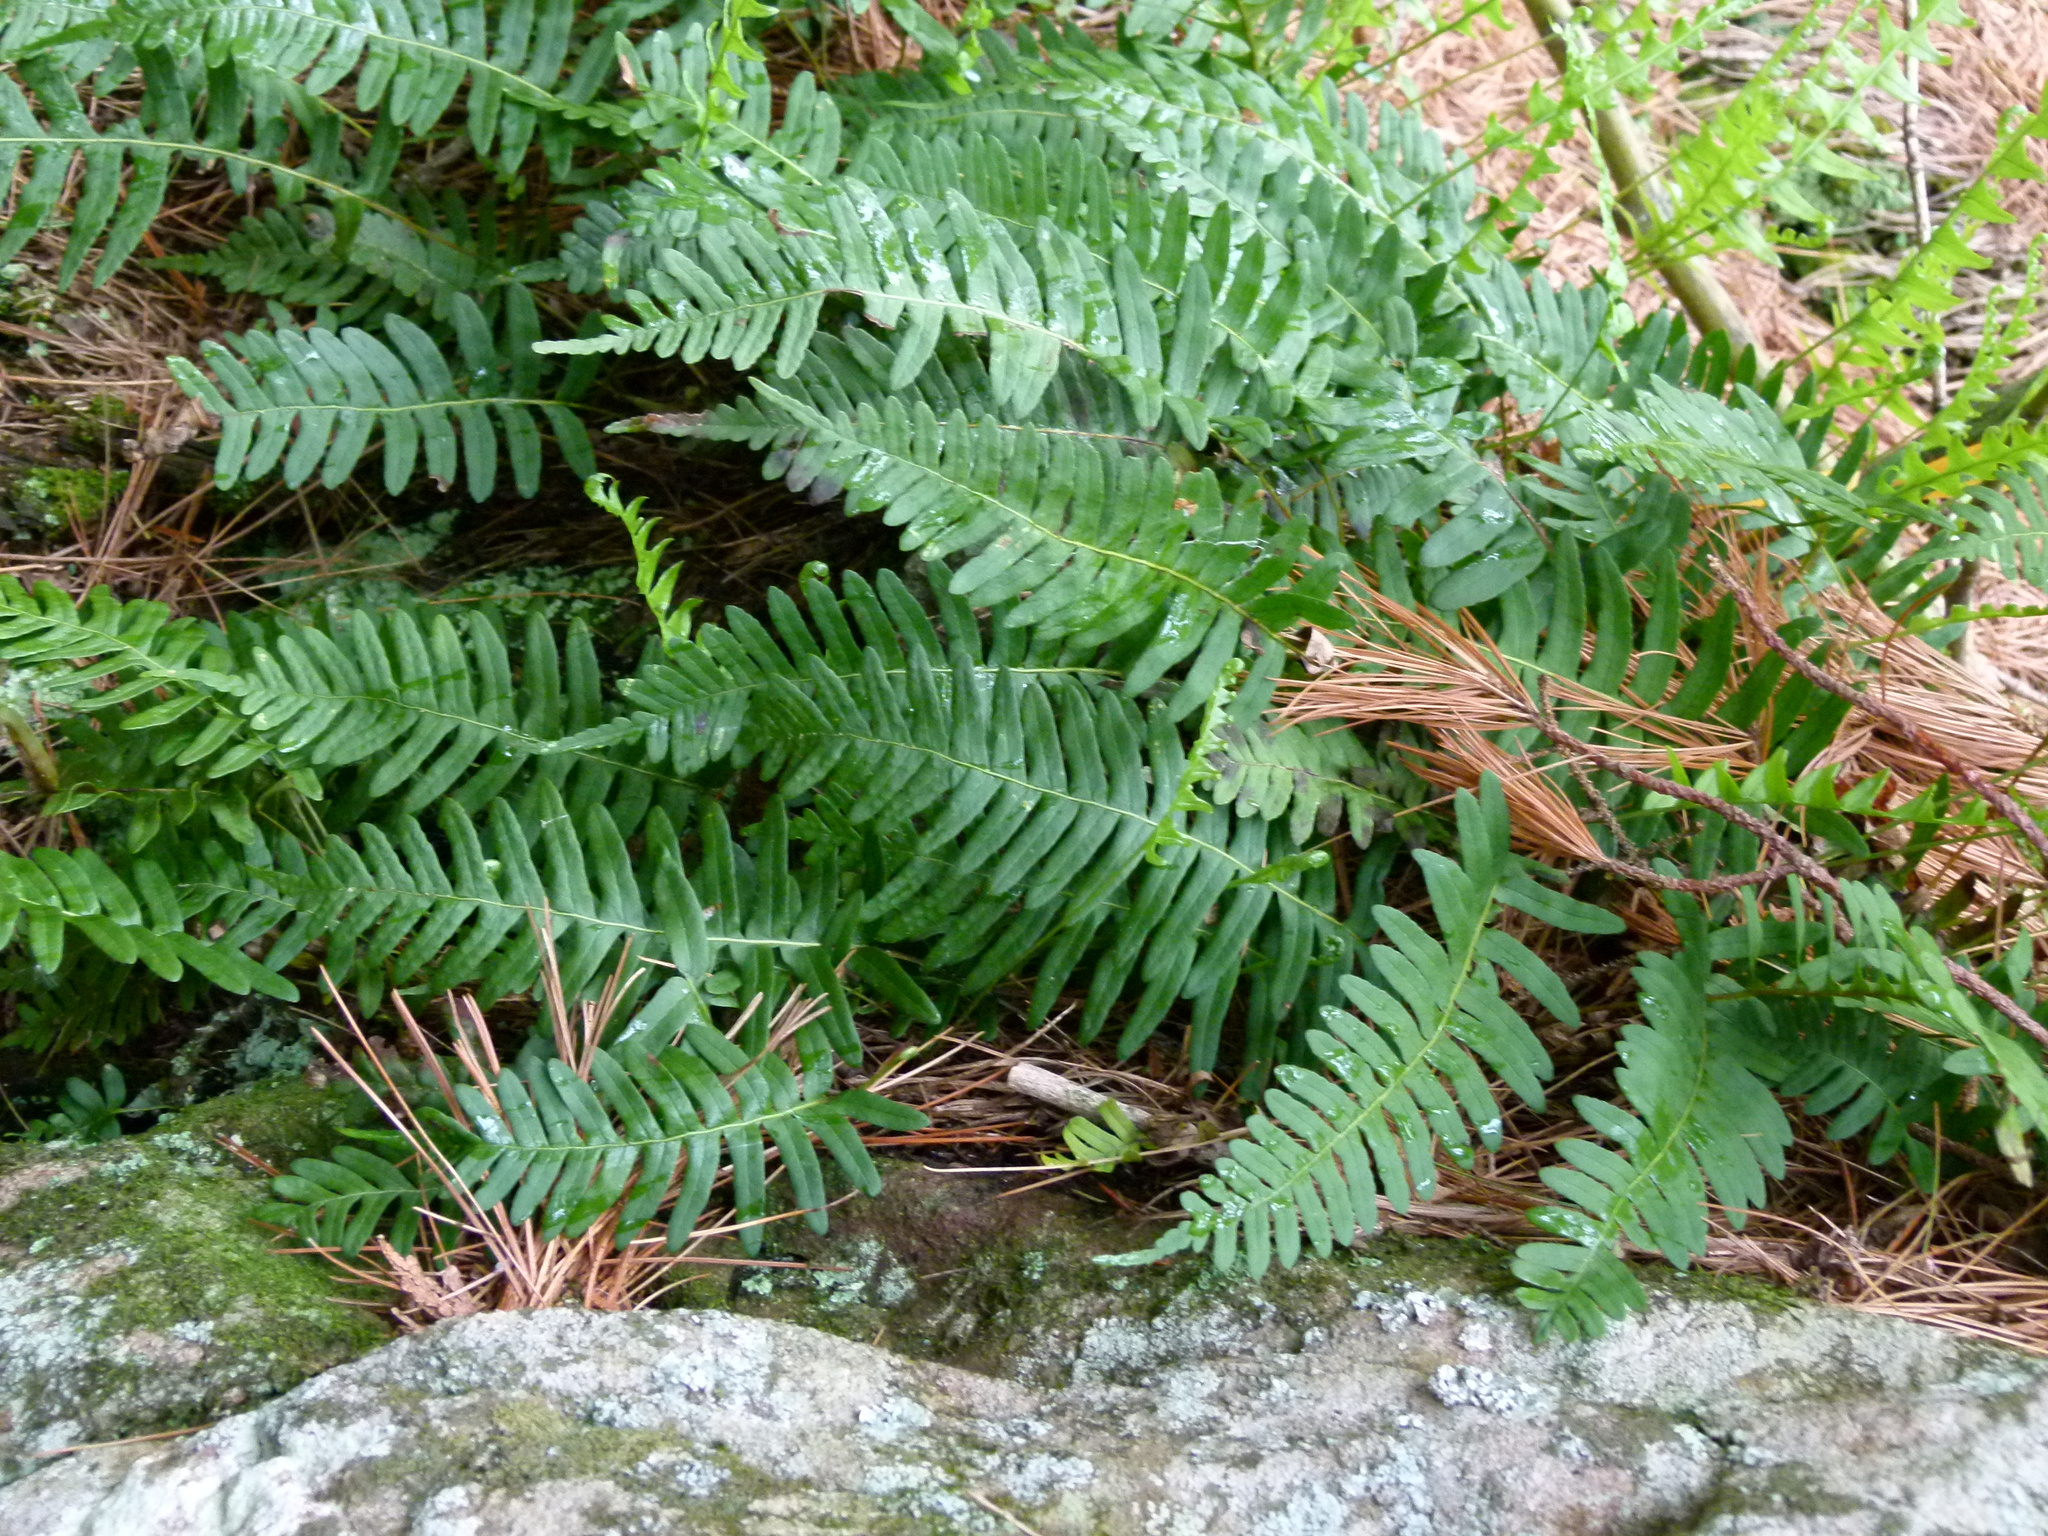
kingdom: Plantae
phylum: Tracheophyta
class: Polypodiopsida
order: Polypodiales
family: Polypodiaceae
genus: Polypodium
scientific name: Polypodium appalachianum
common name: Appalachian polypody
